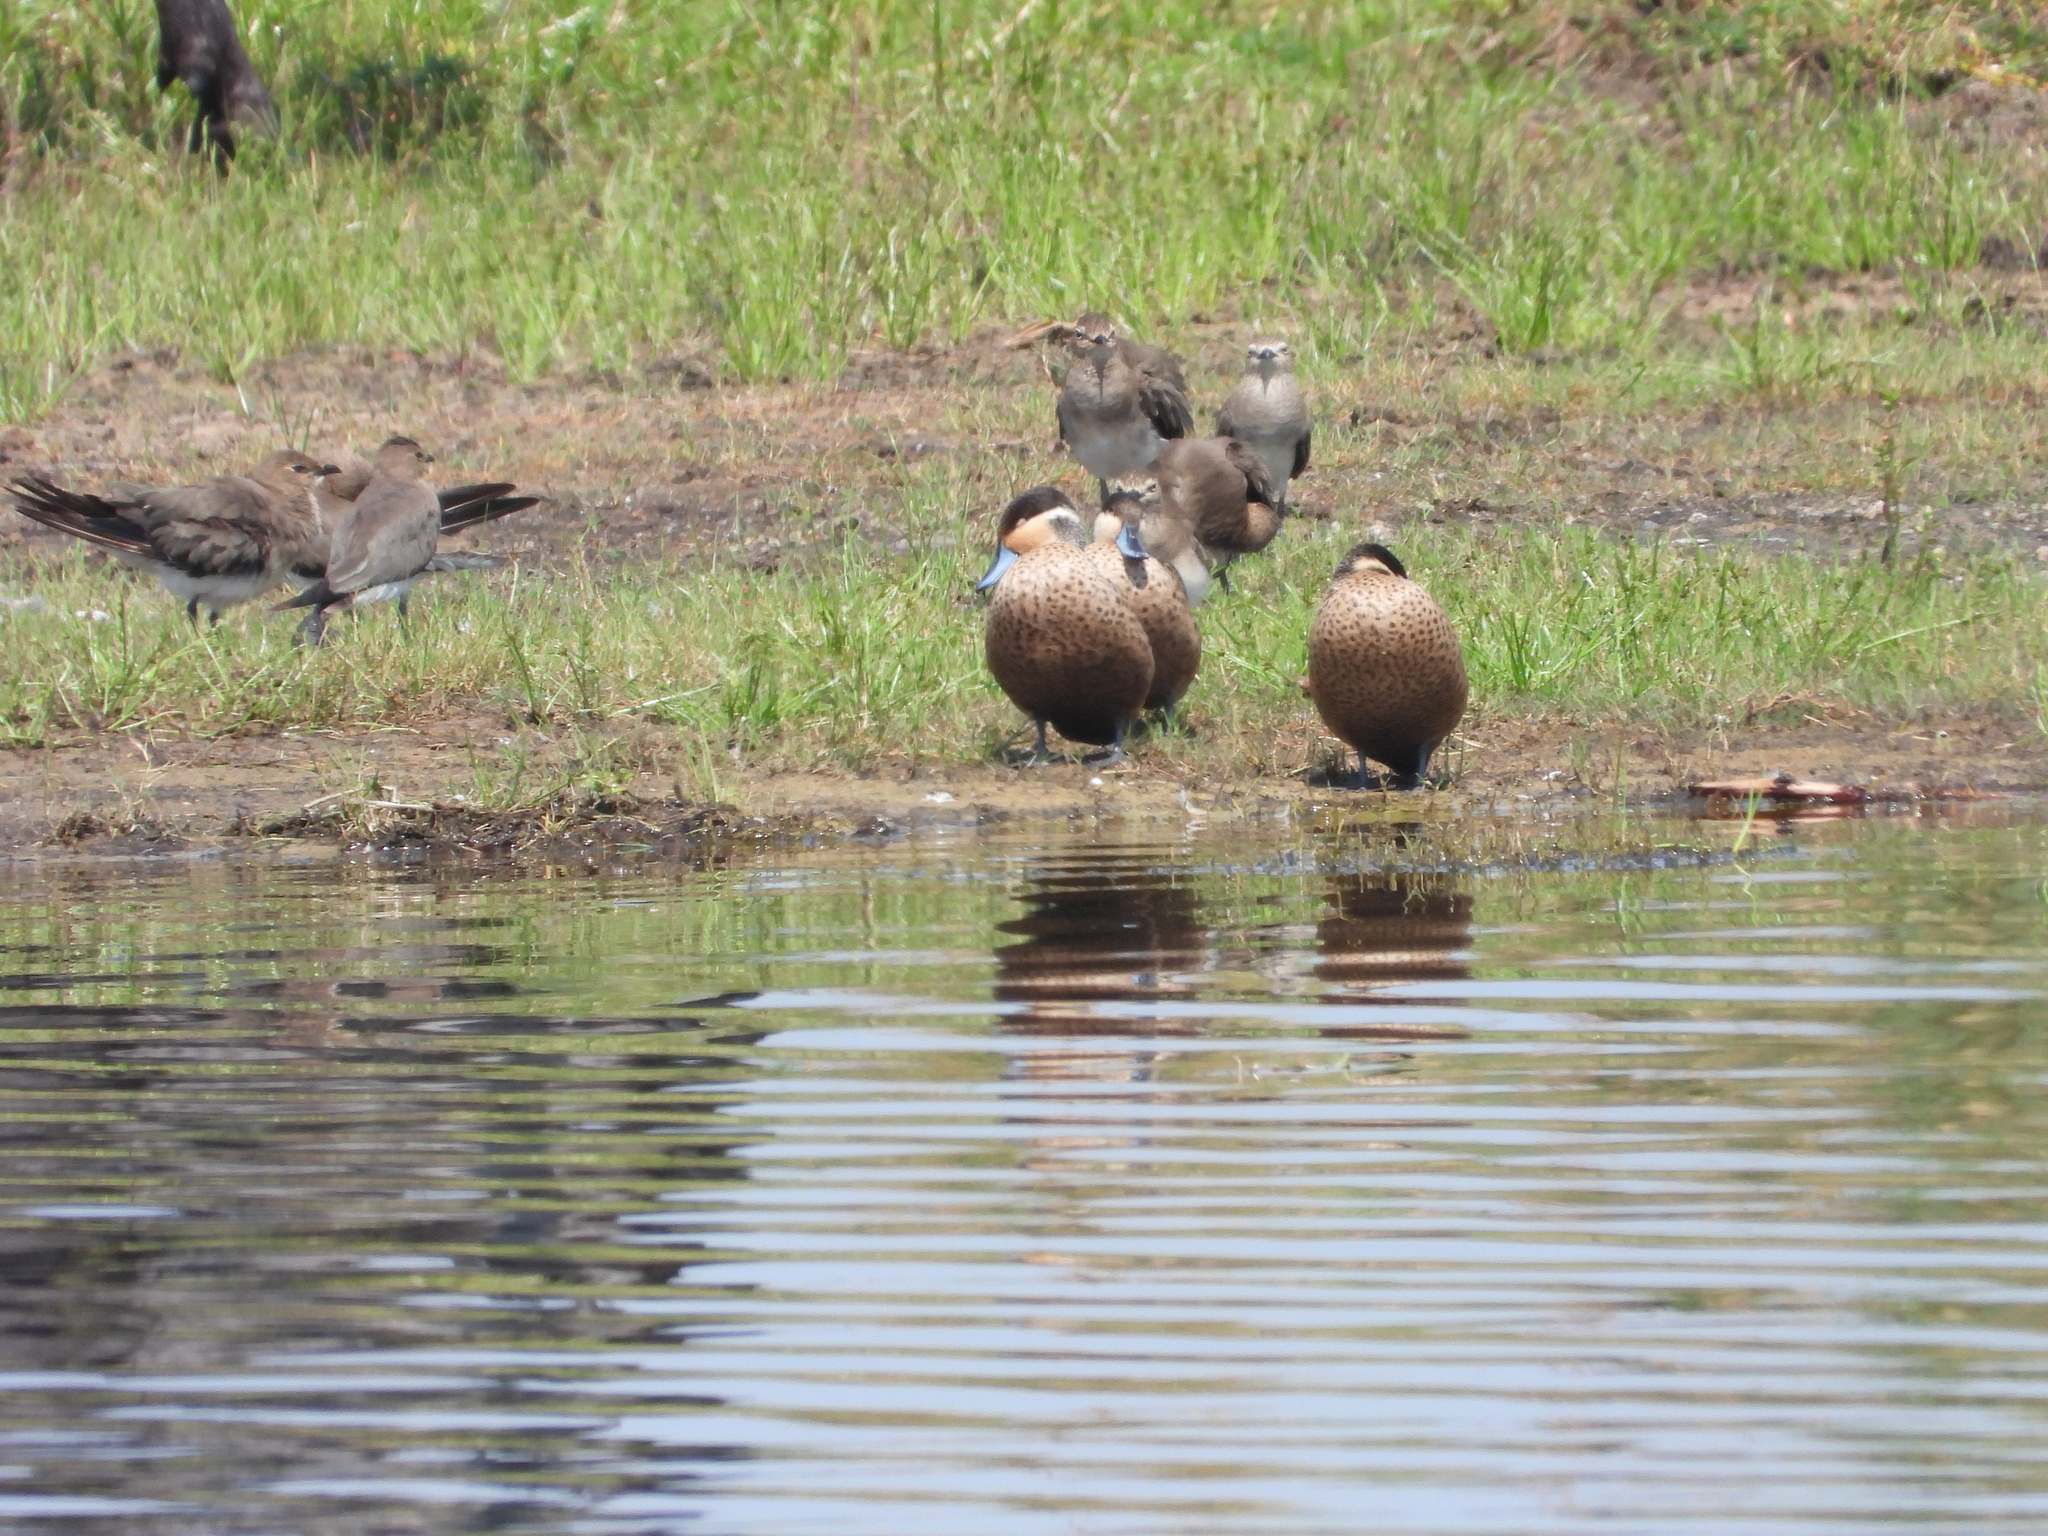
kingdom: Animalia
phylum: Chordata
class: Aves
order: Anseriformes
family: Anatidae
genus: Spatula
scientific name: Spatula hottentota
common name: Blue-billed teal
